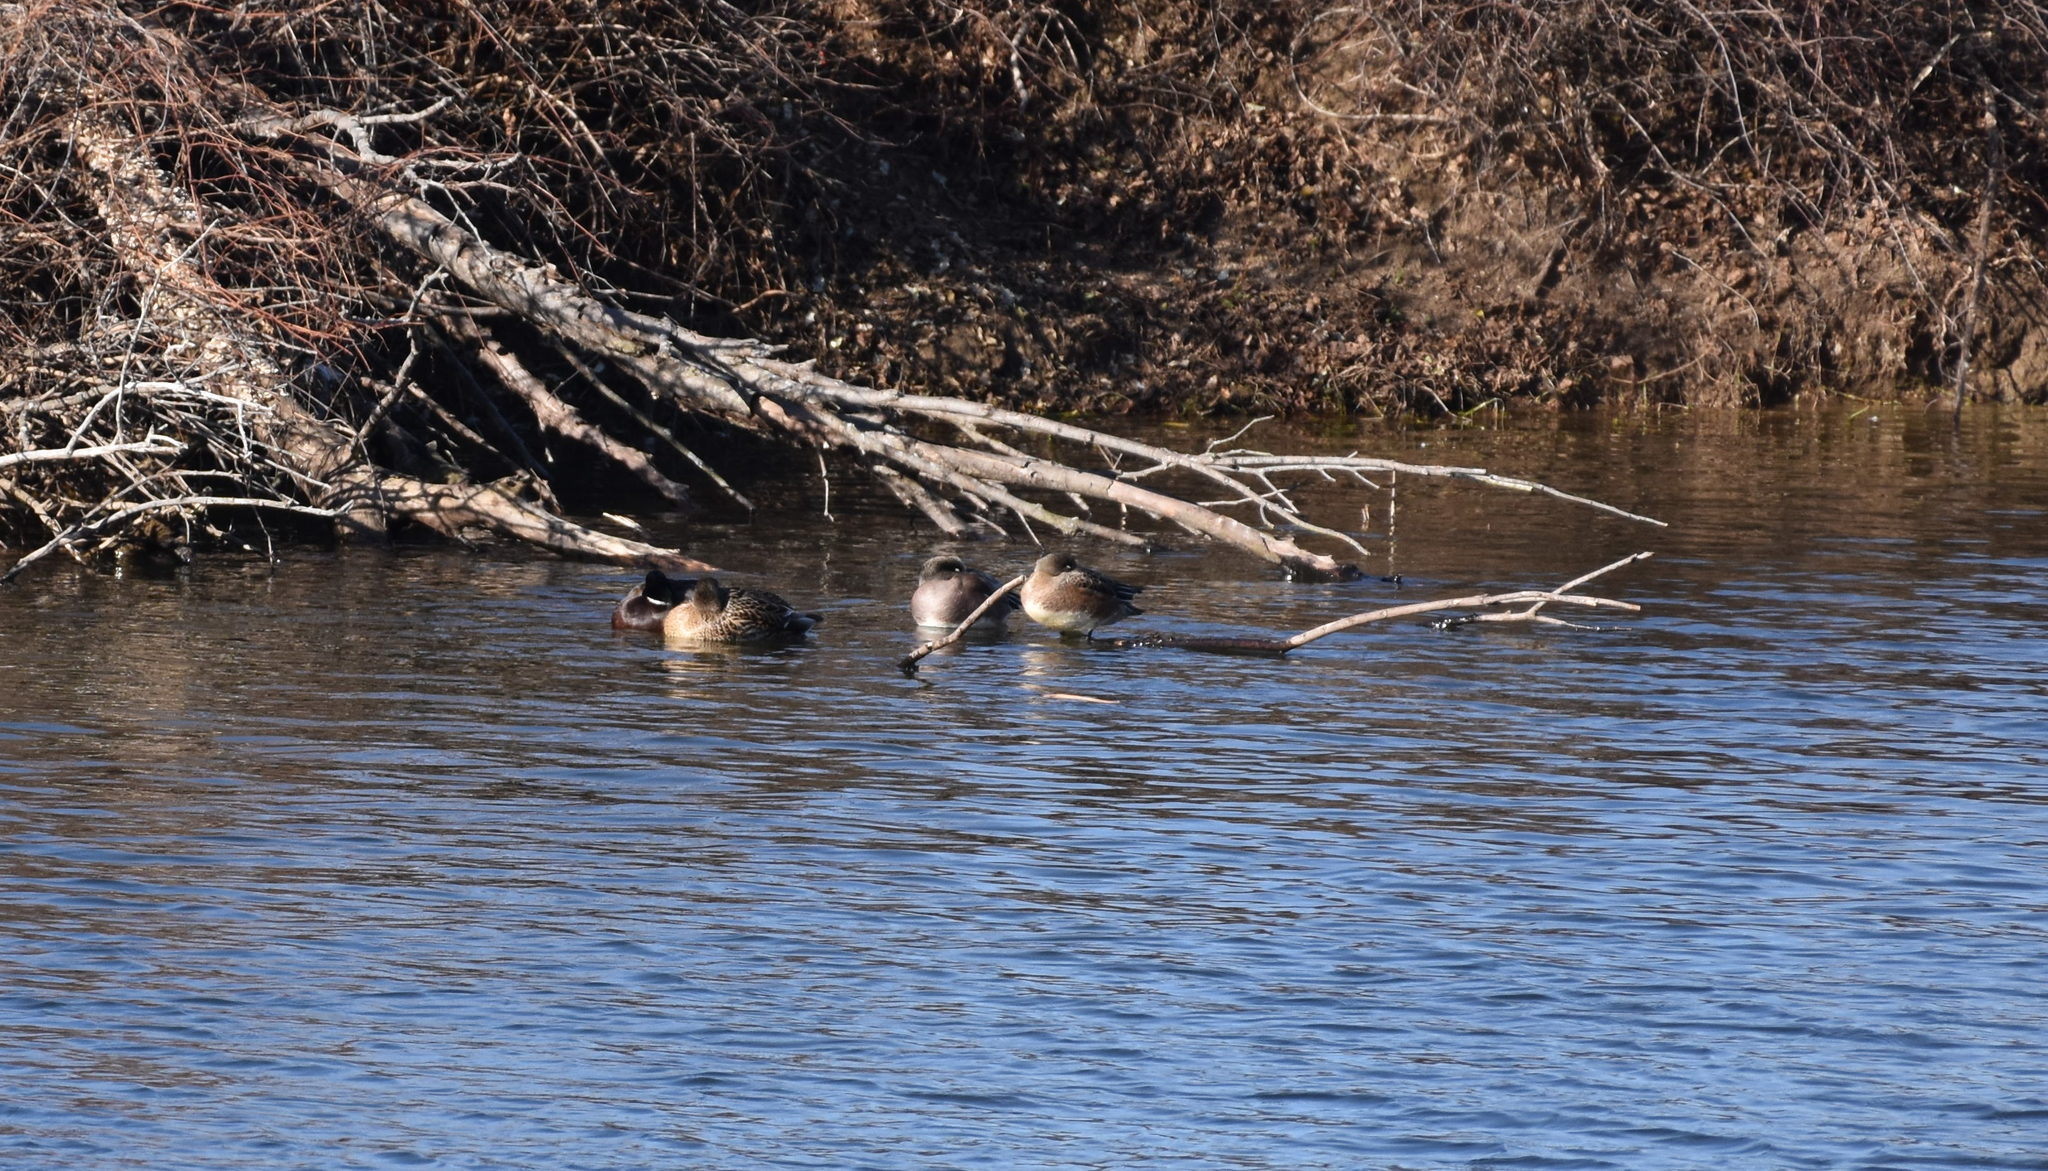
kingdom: Animalia
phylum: Chordata
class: Aves
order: Anseriformes
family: Anatidae
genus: Mareca
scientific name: Mareca americana
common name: American wigeon
